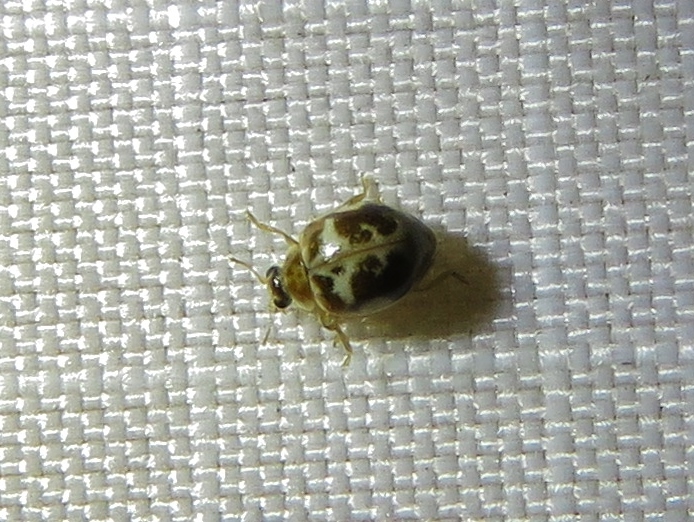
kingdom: Animalia
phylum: Arthropoda
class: Insecta
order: Coleoptera
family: Coccinellidae
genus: Psyllobora
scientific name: Psyllobora renifer
